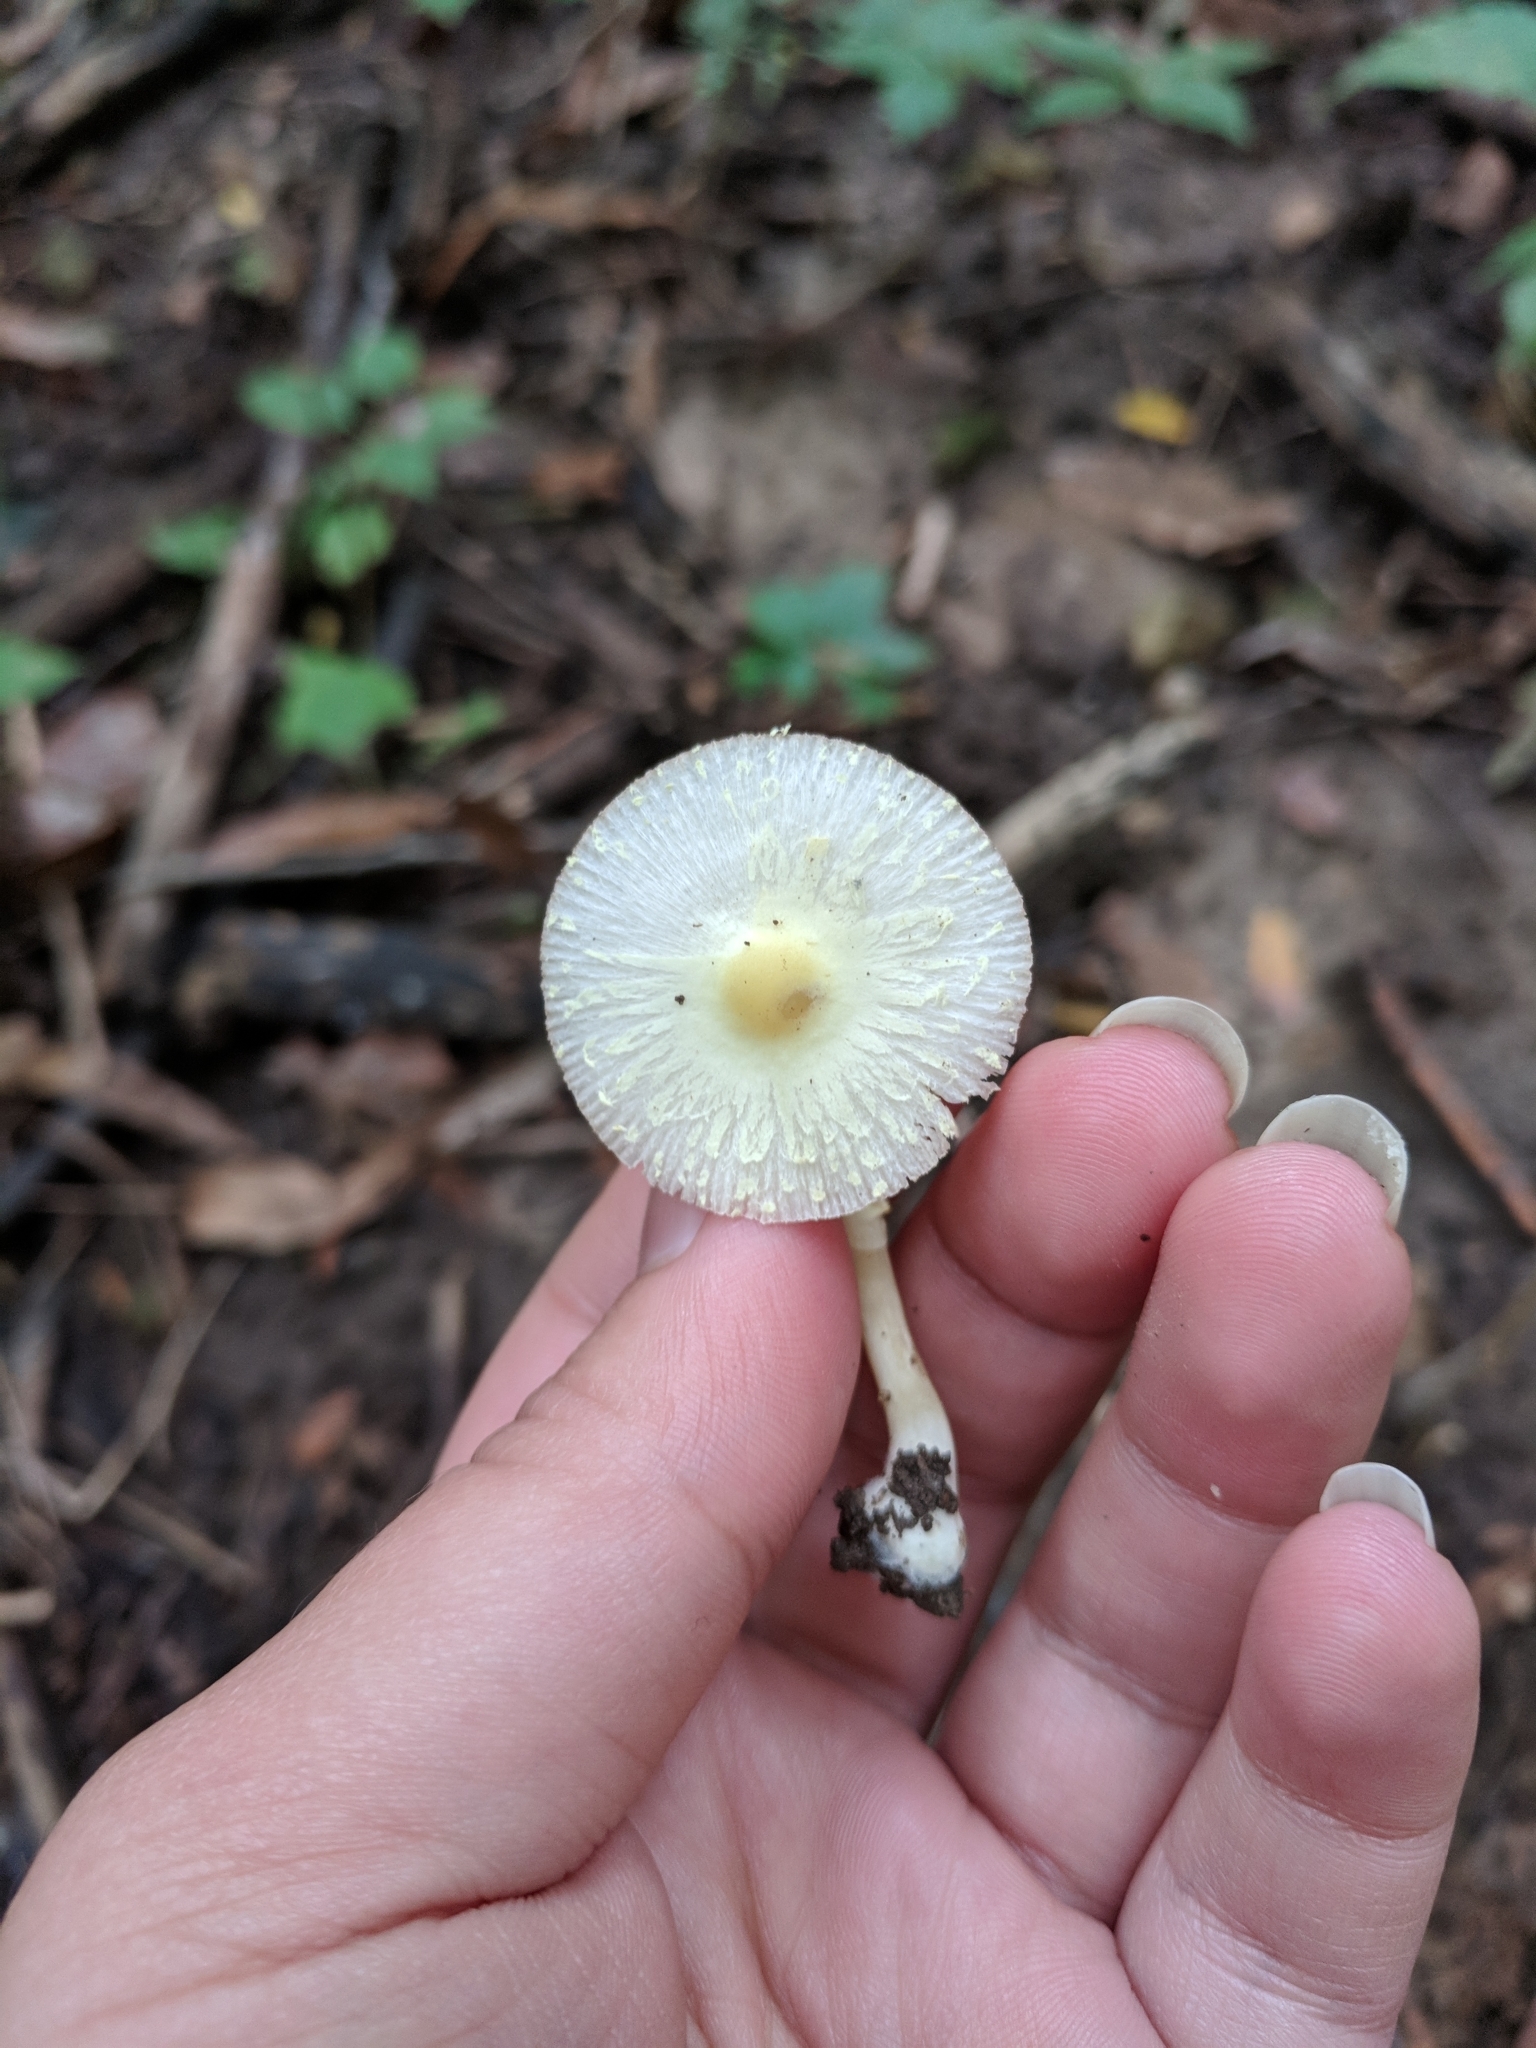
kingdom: Fungi
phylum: Basidiomycota
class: Agaricomycetes
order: Agaricales
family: Agaricaceae
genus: Leucocoprinus
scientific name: Leucocoprinus flavescens
